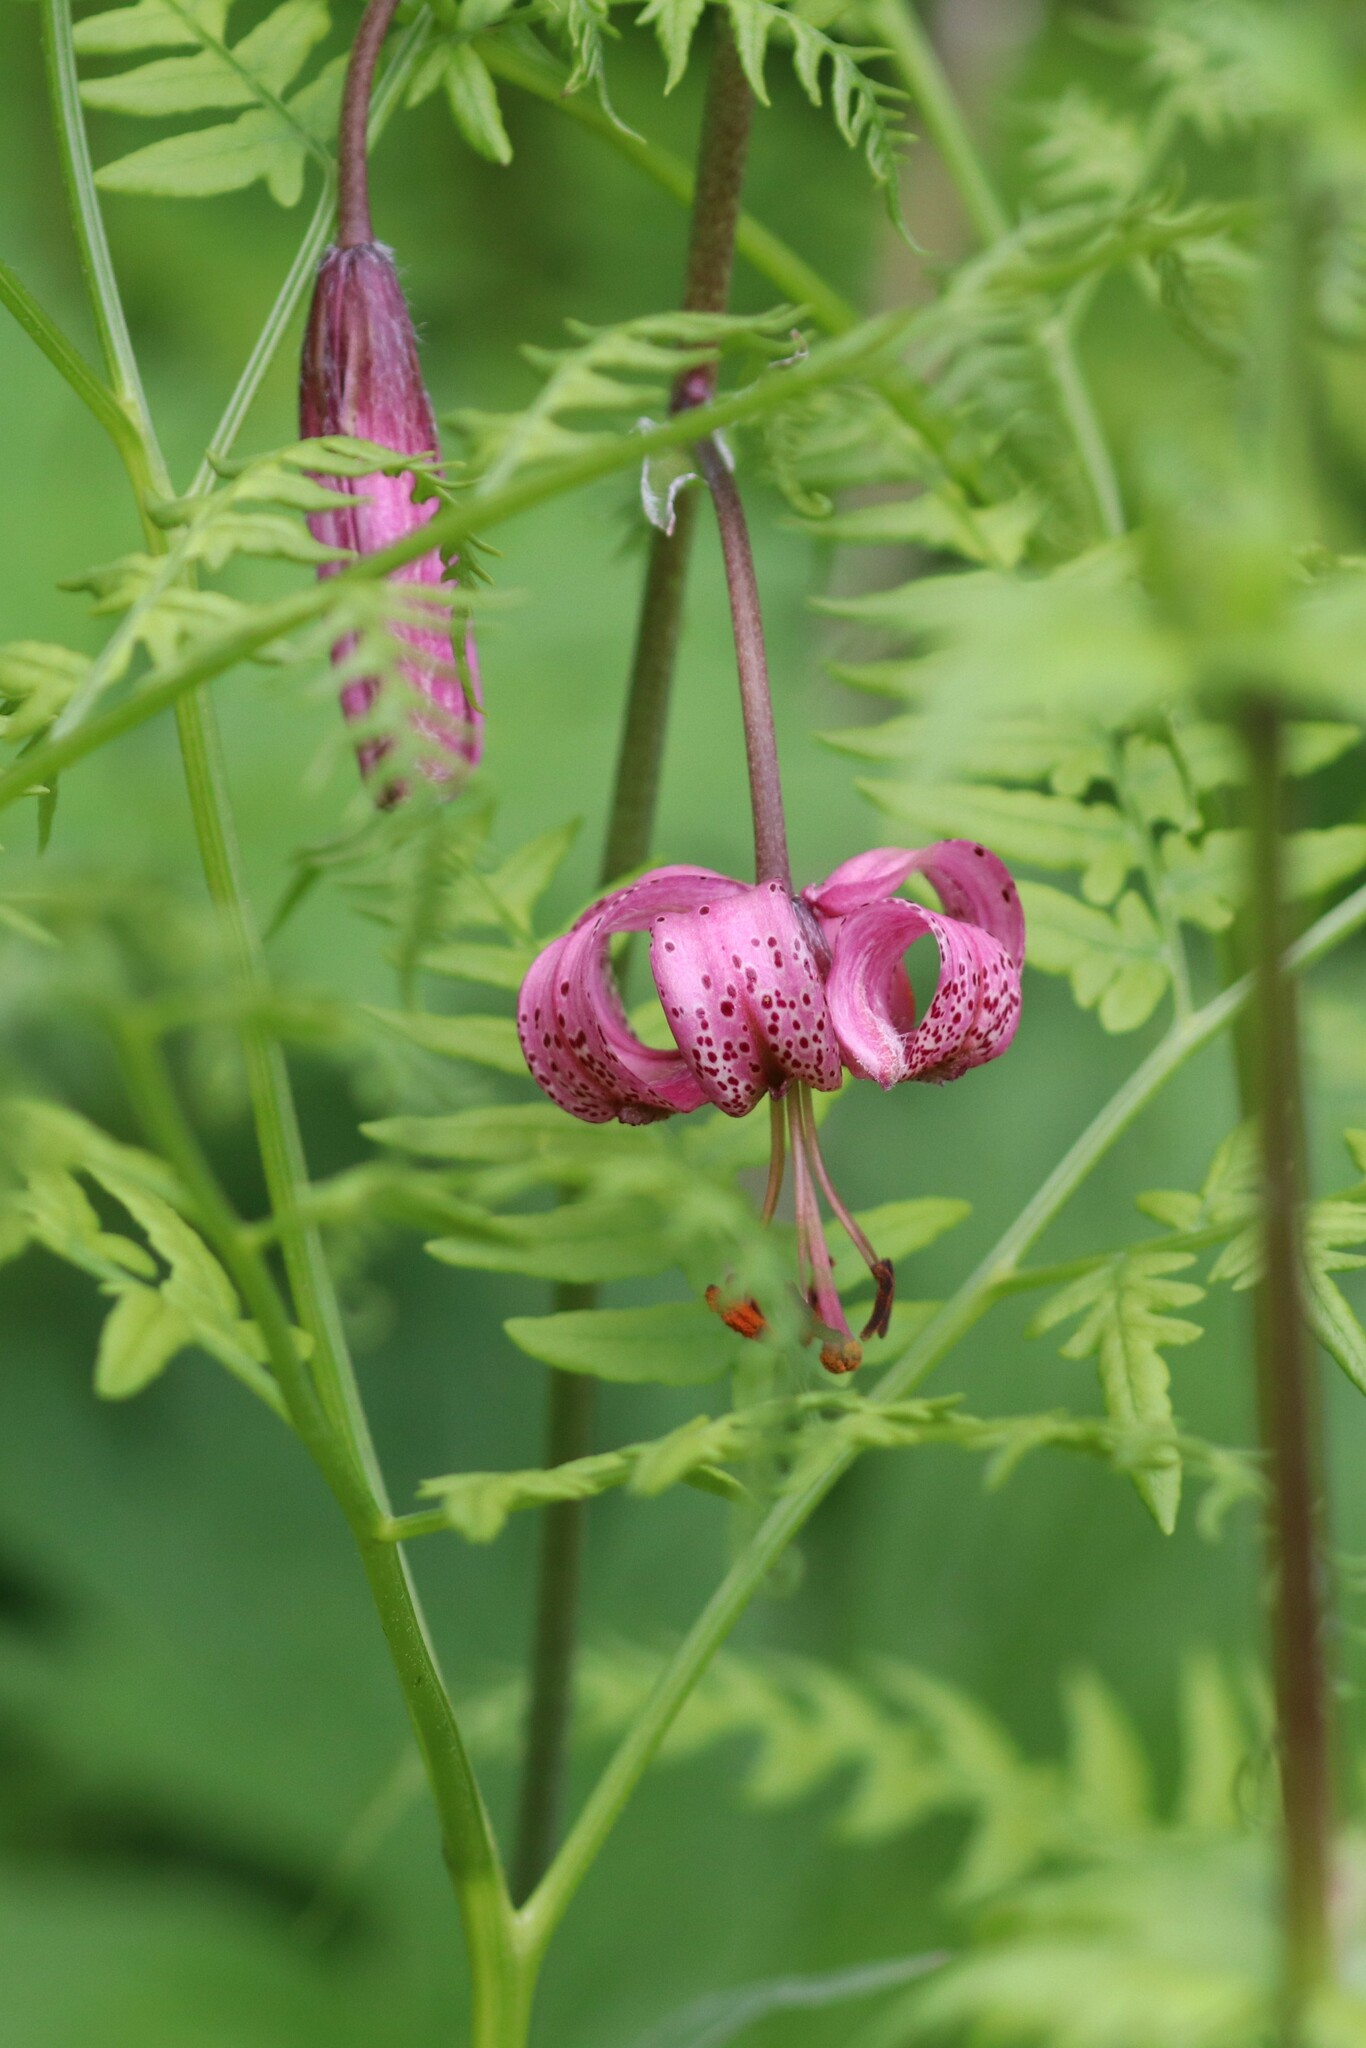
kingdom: Plantae
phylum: Tracheophyta
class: Liliopsida
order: Liliales
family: Liliaceae
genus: Lilium
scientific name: Lilium martagon
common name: Martagon lily
